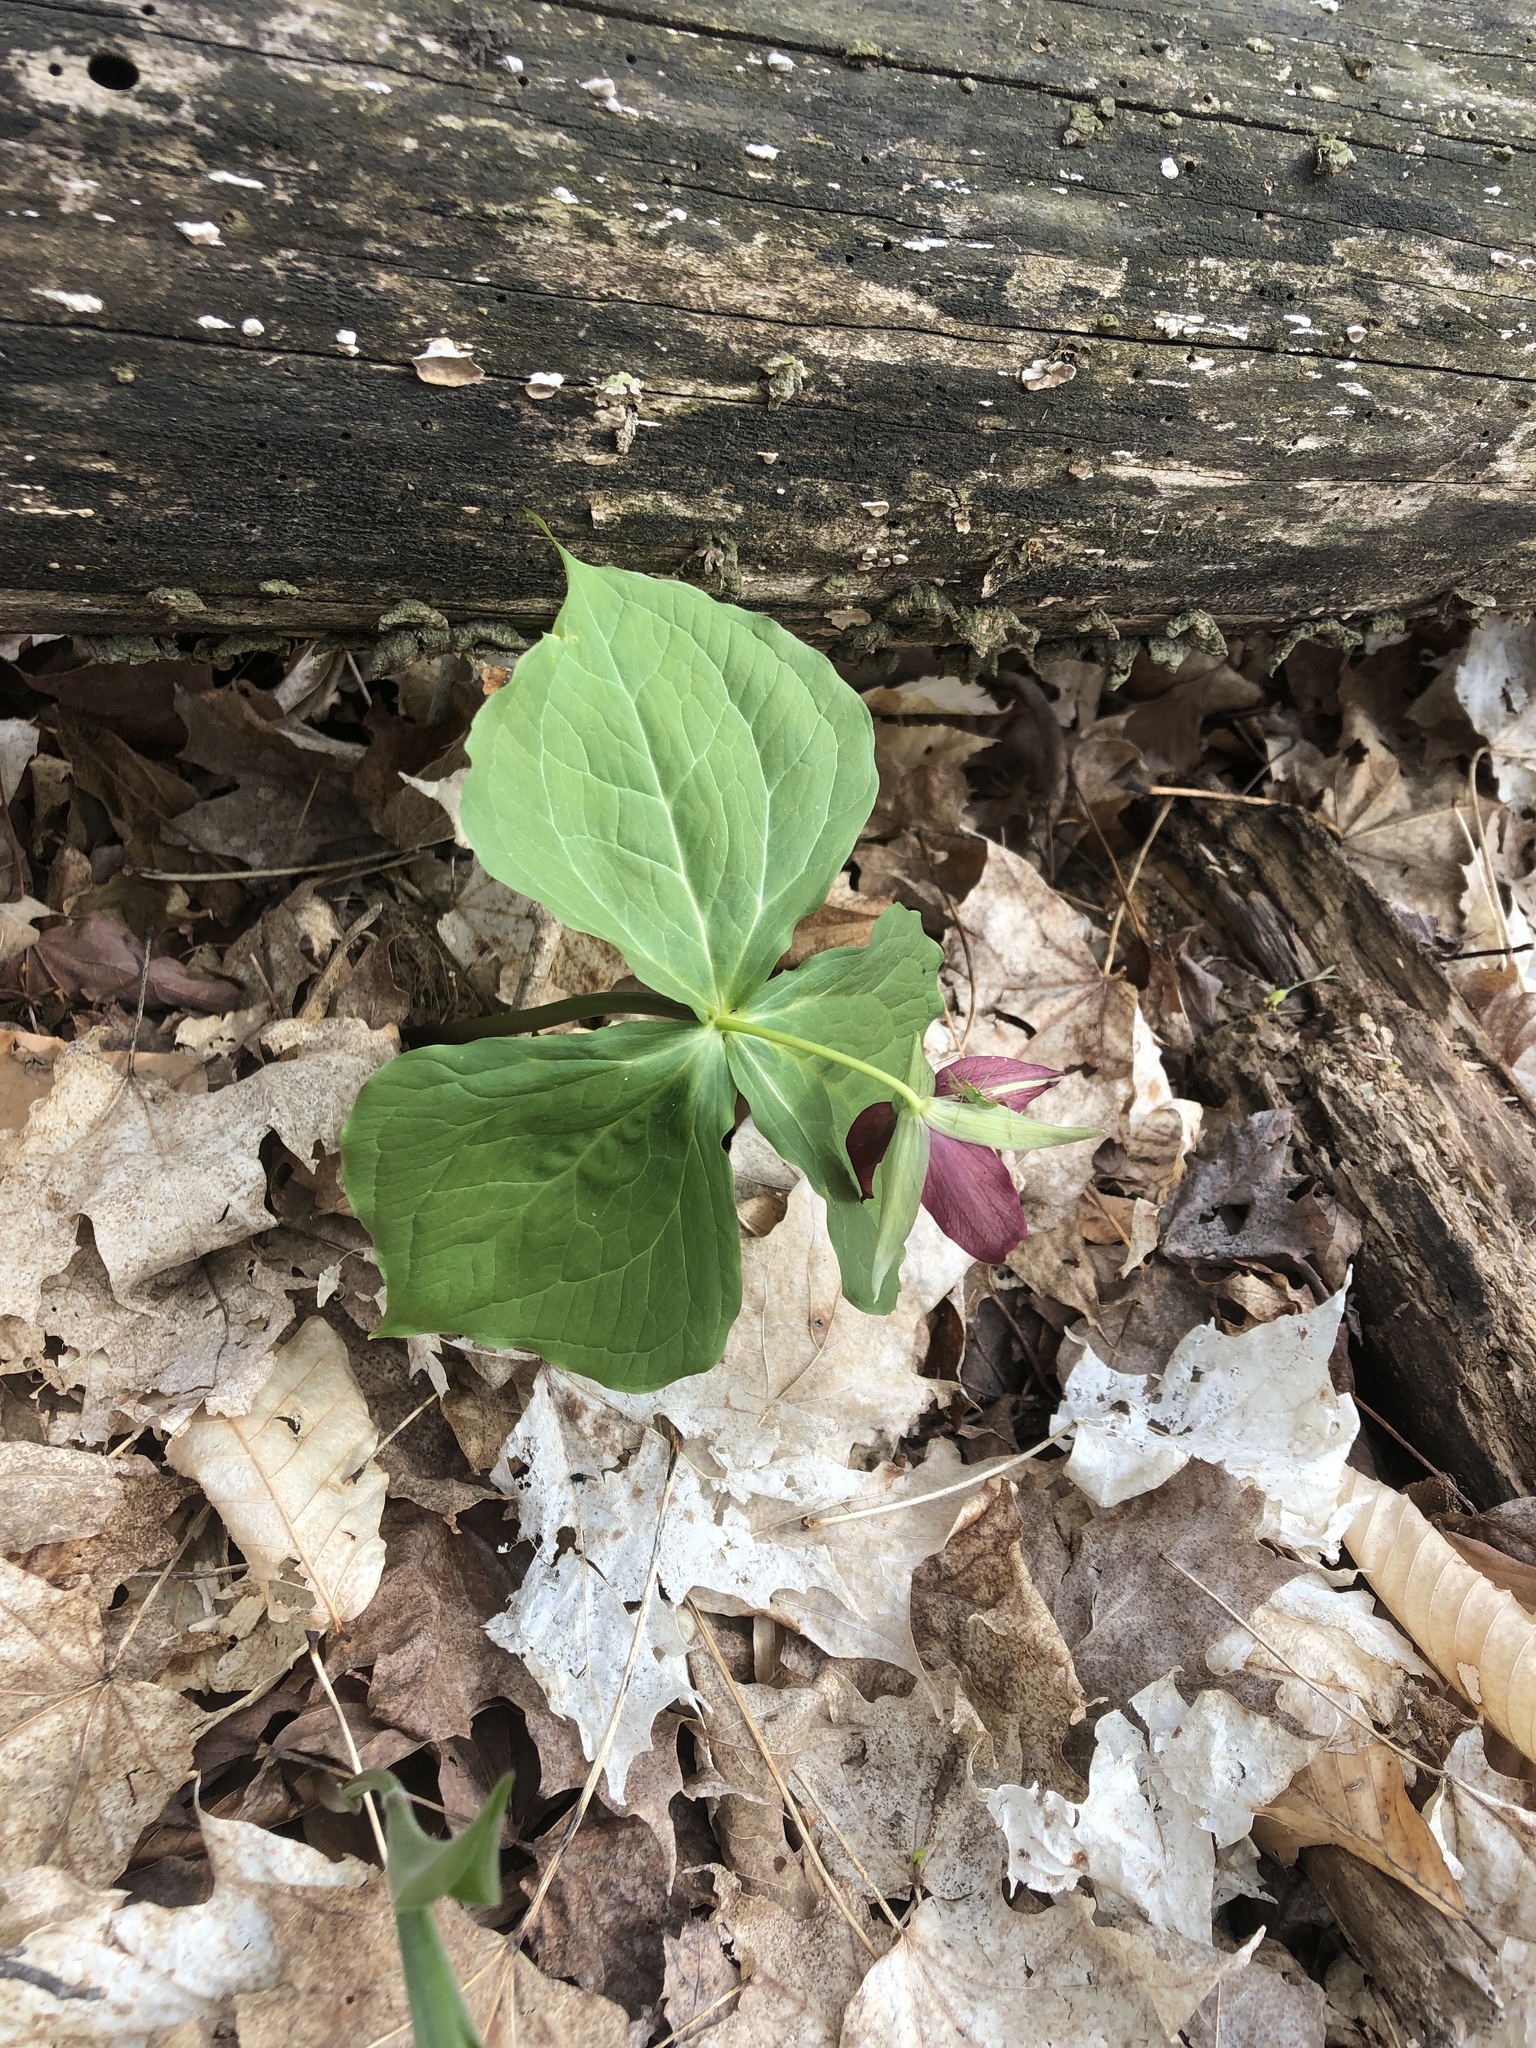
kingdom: Plantae
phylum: Tracheophyta
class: Liliopsida
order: Liliales
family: Melanthiaceae
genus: Trillium
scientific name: Trillium erectum
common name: Purple trillium
